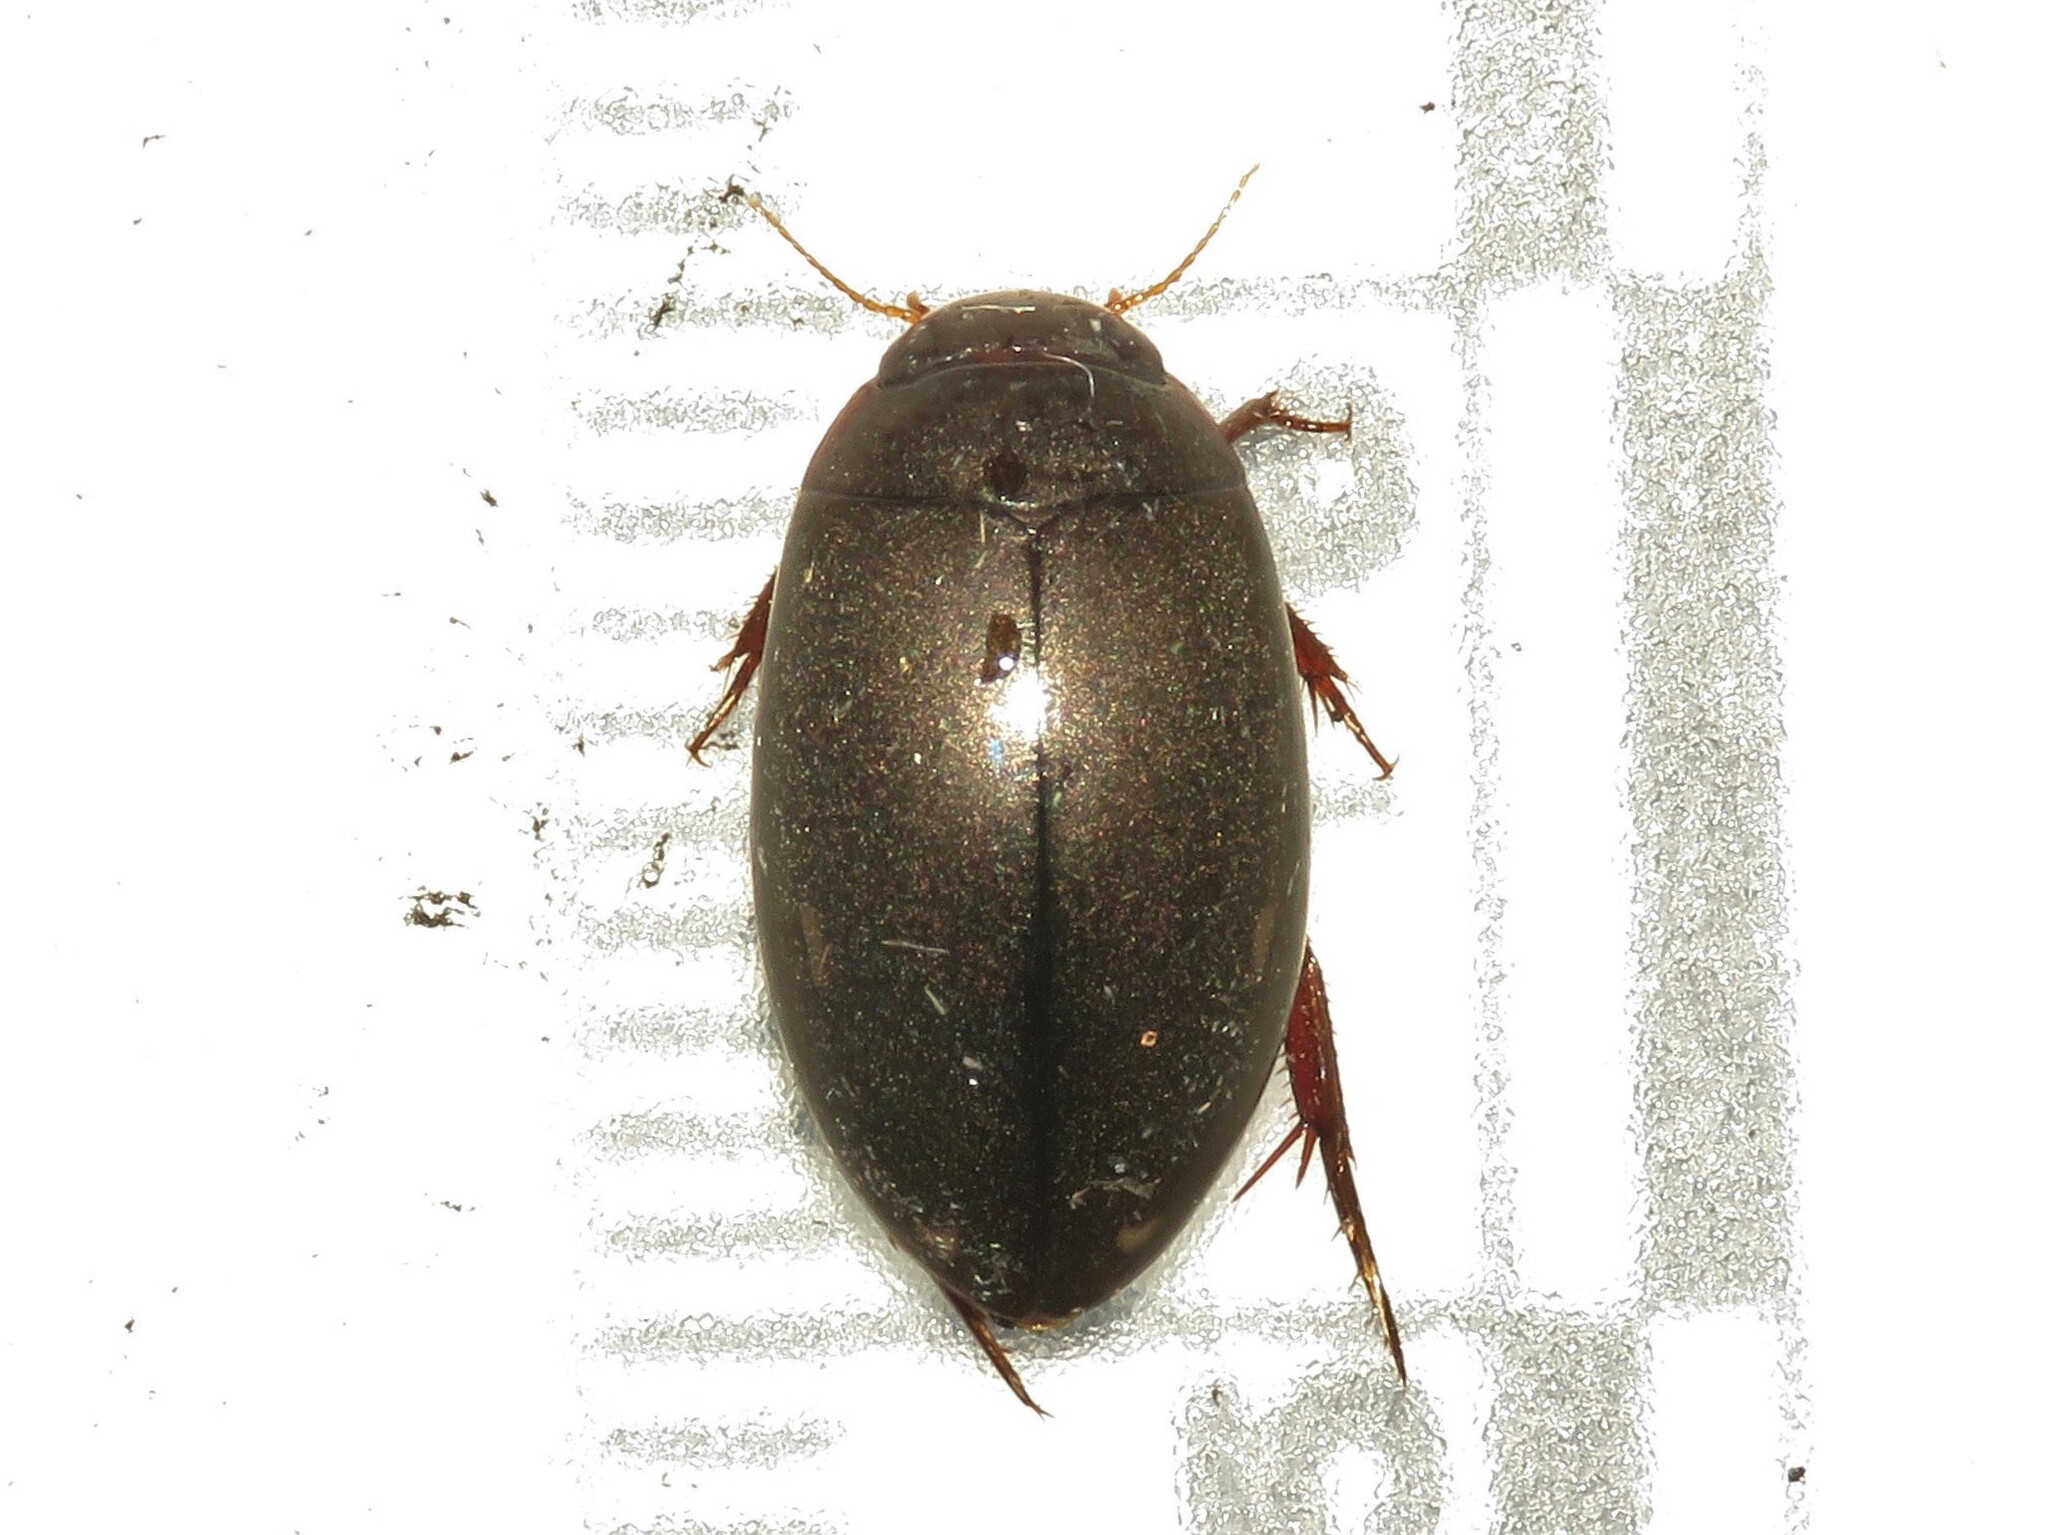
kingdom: Animalia
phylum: Arthropoda
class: Insecta
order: Coleoptera
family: Dytiscidae
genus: Ilybius
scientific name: Ilybius
